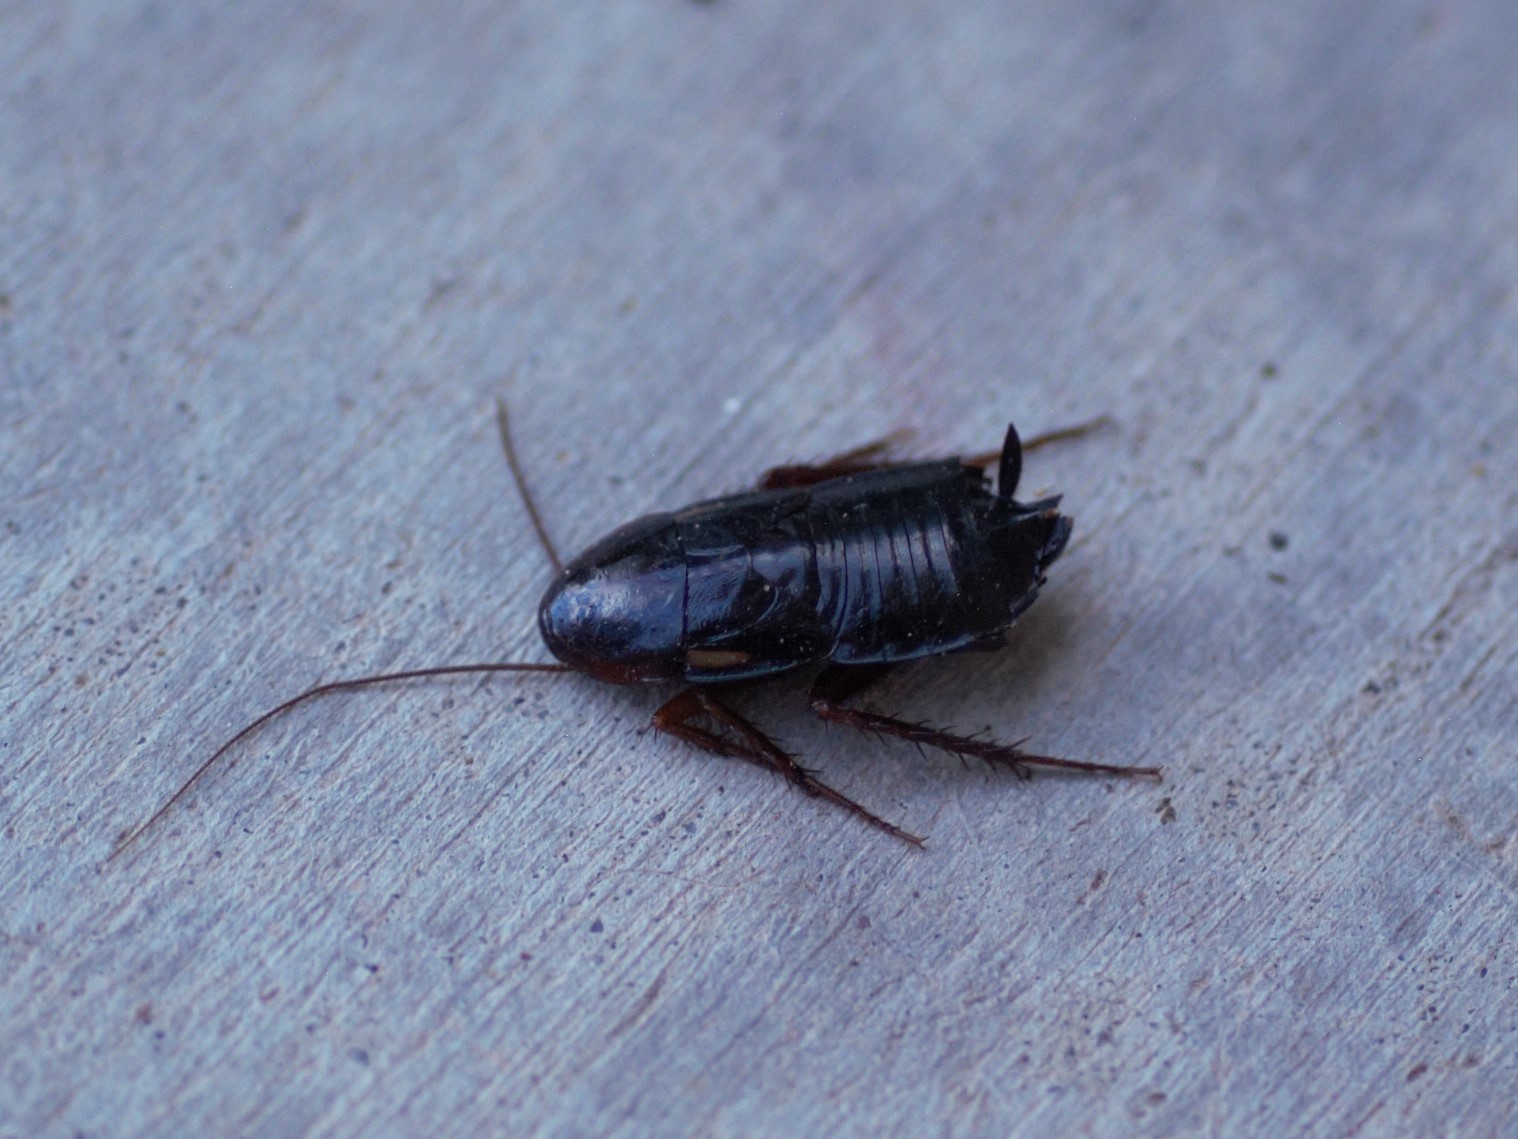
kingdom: Animalia
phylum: Arthropoda
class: Insecta
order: Blattodea
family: Blattidae
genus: Periplaneta
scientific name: Periplaneta lateralis
